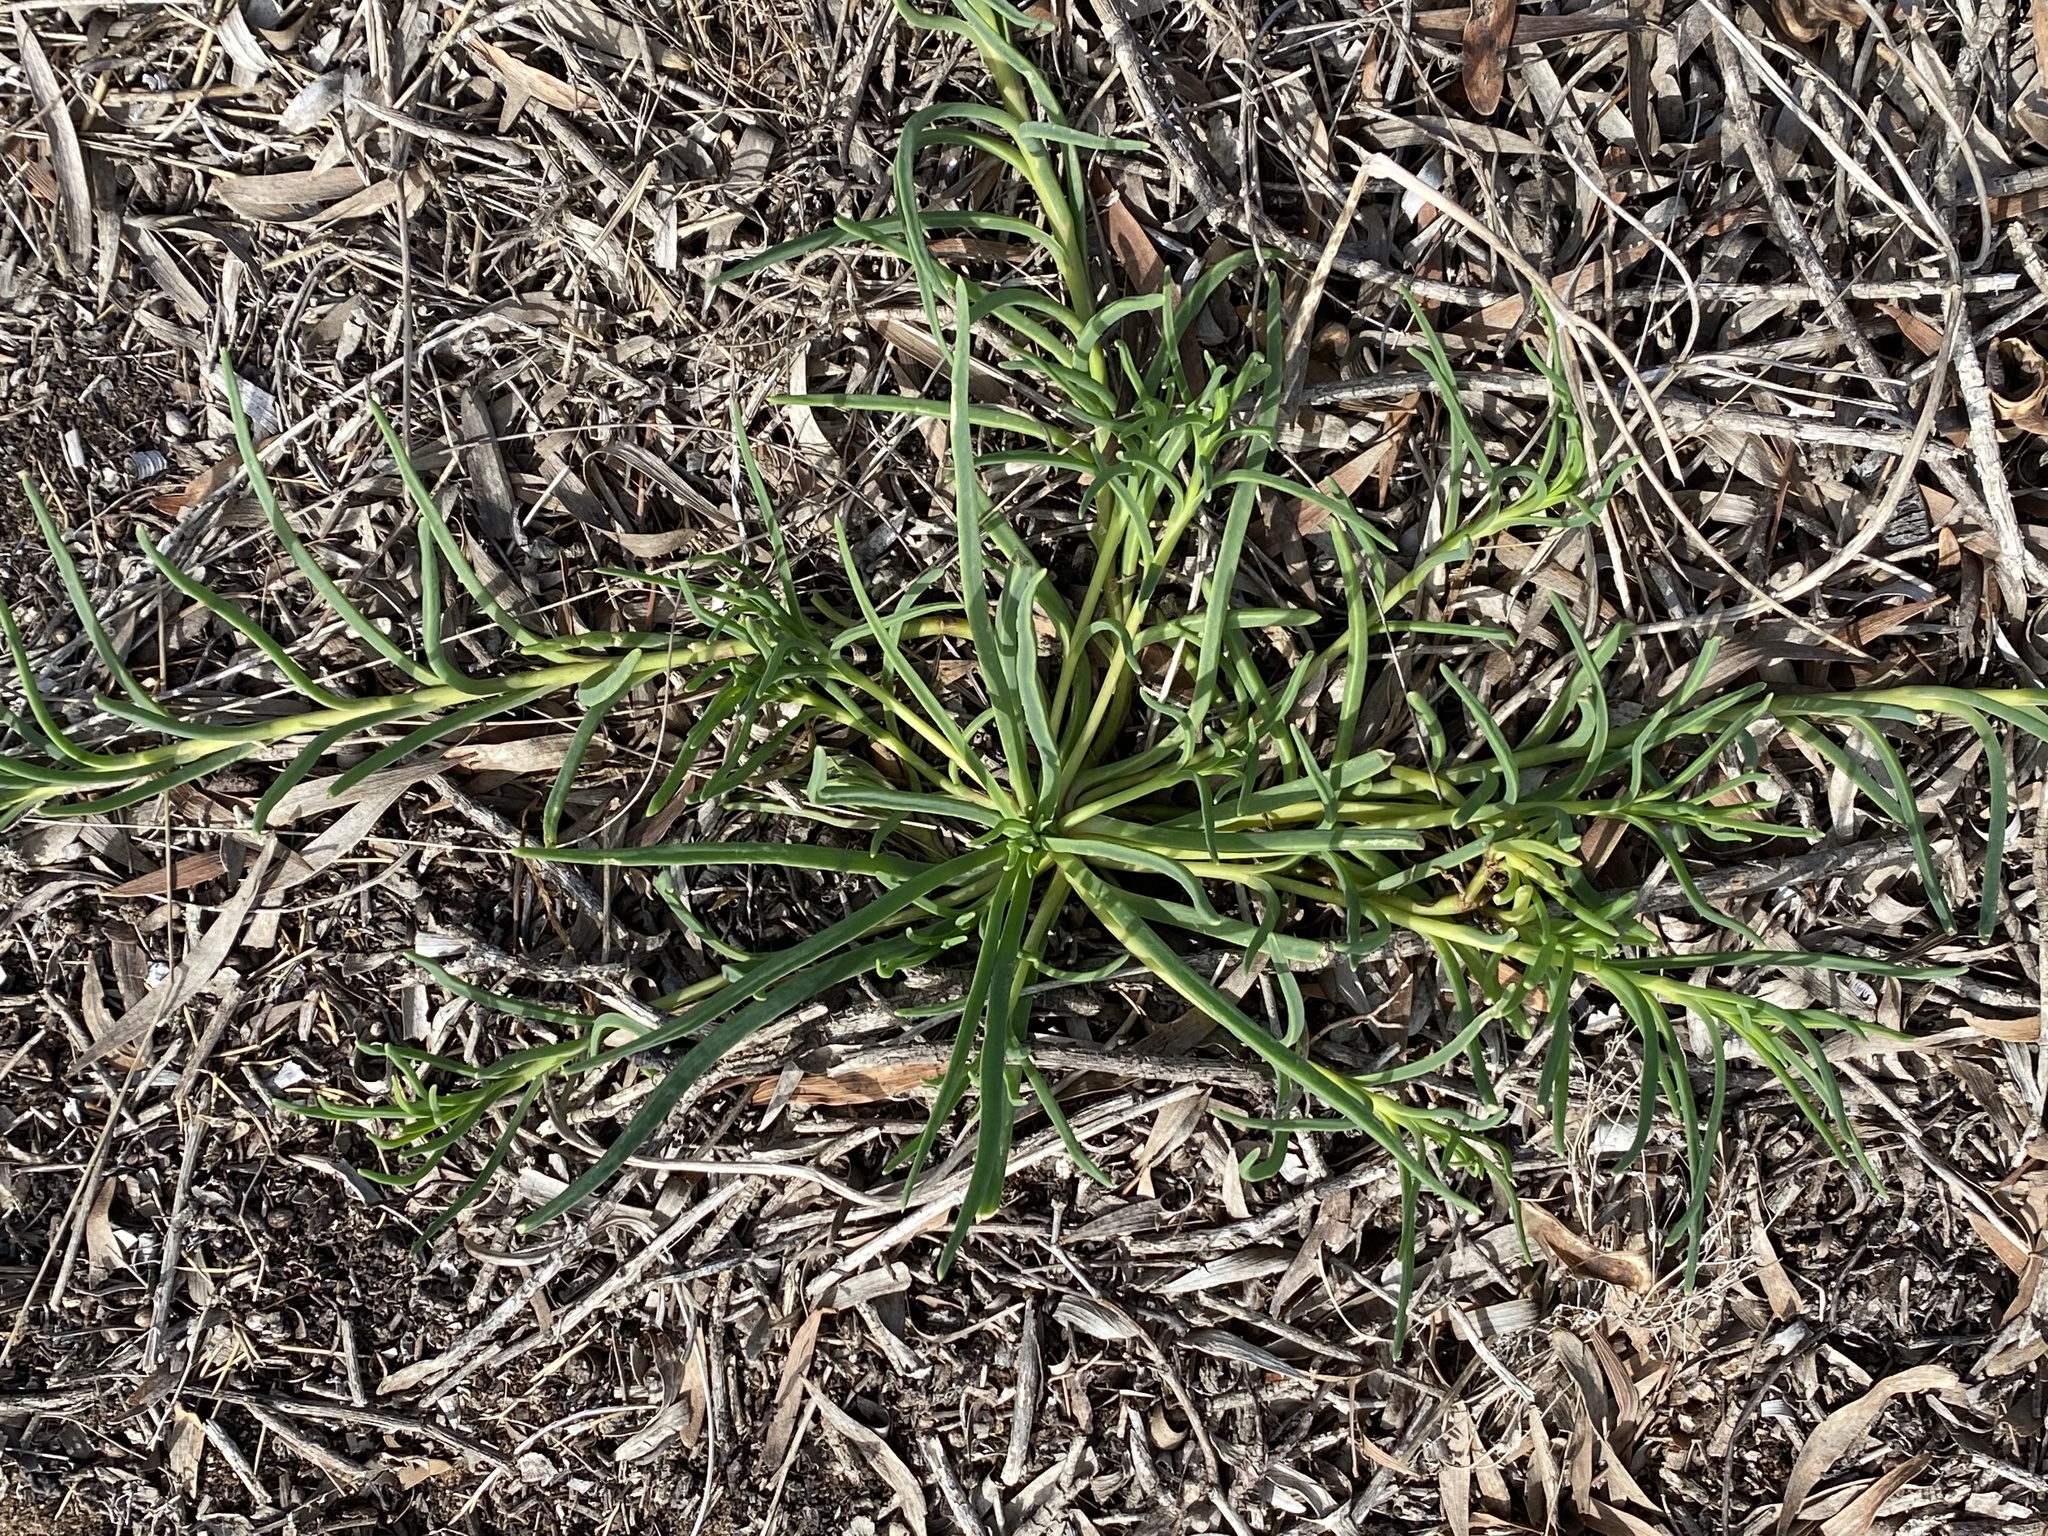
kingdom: Plantae
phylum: Tracheophyta
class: Magnoliopsida
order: Caryophyllales
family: Aizoaceae
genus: Conicosia
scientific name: Conicosia pugioniformis
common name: Narrow-leaved iceplant
